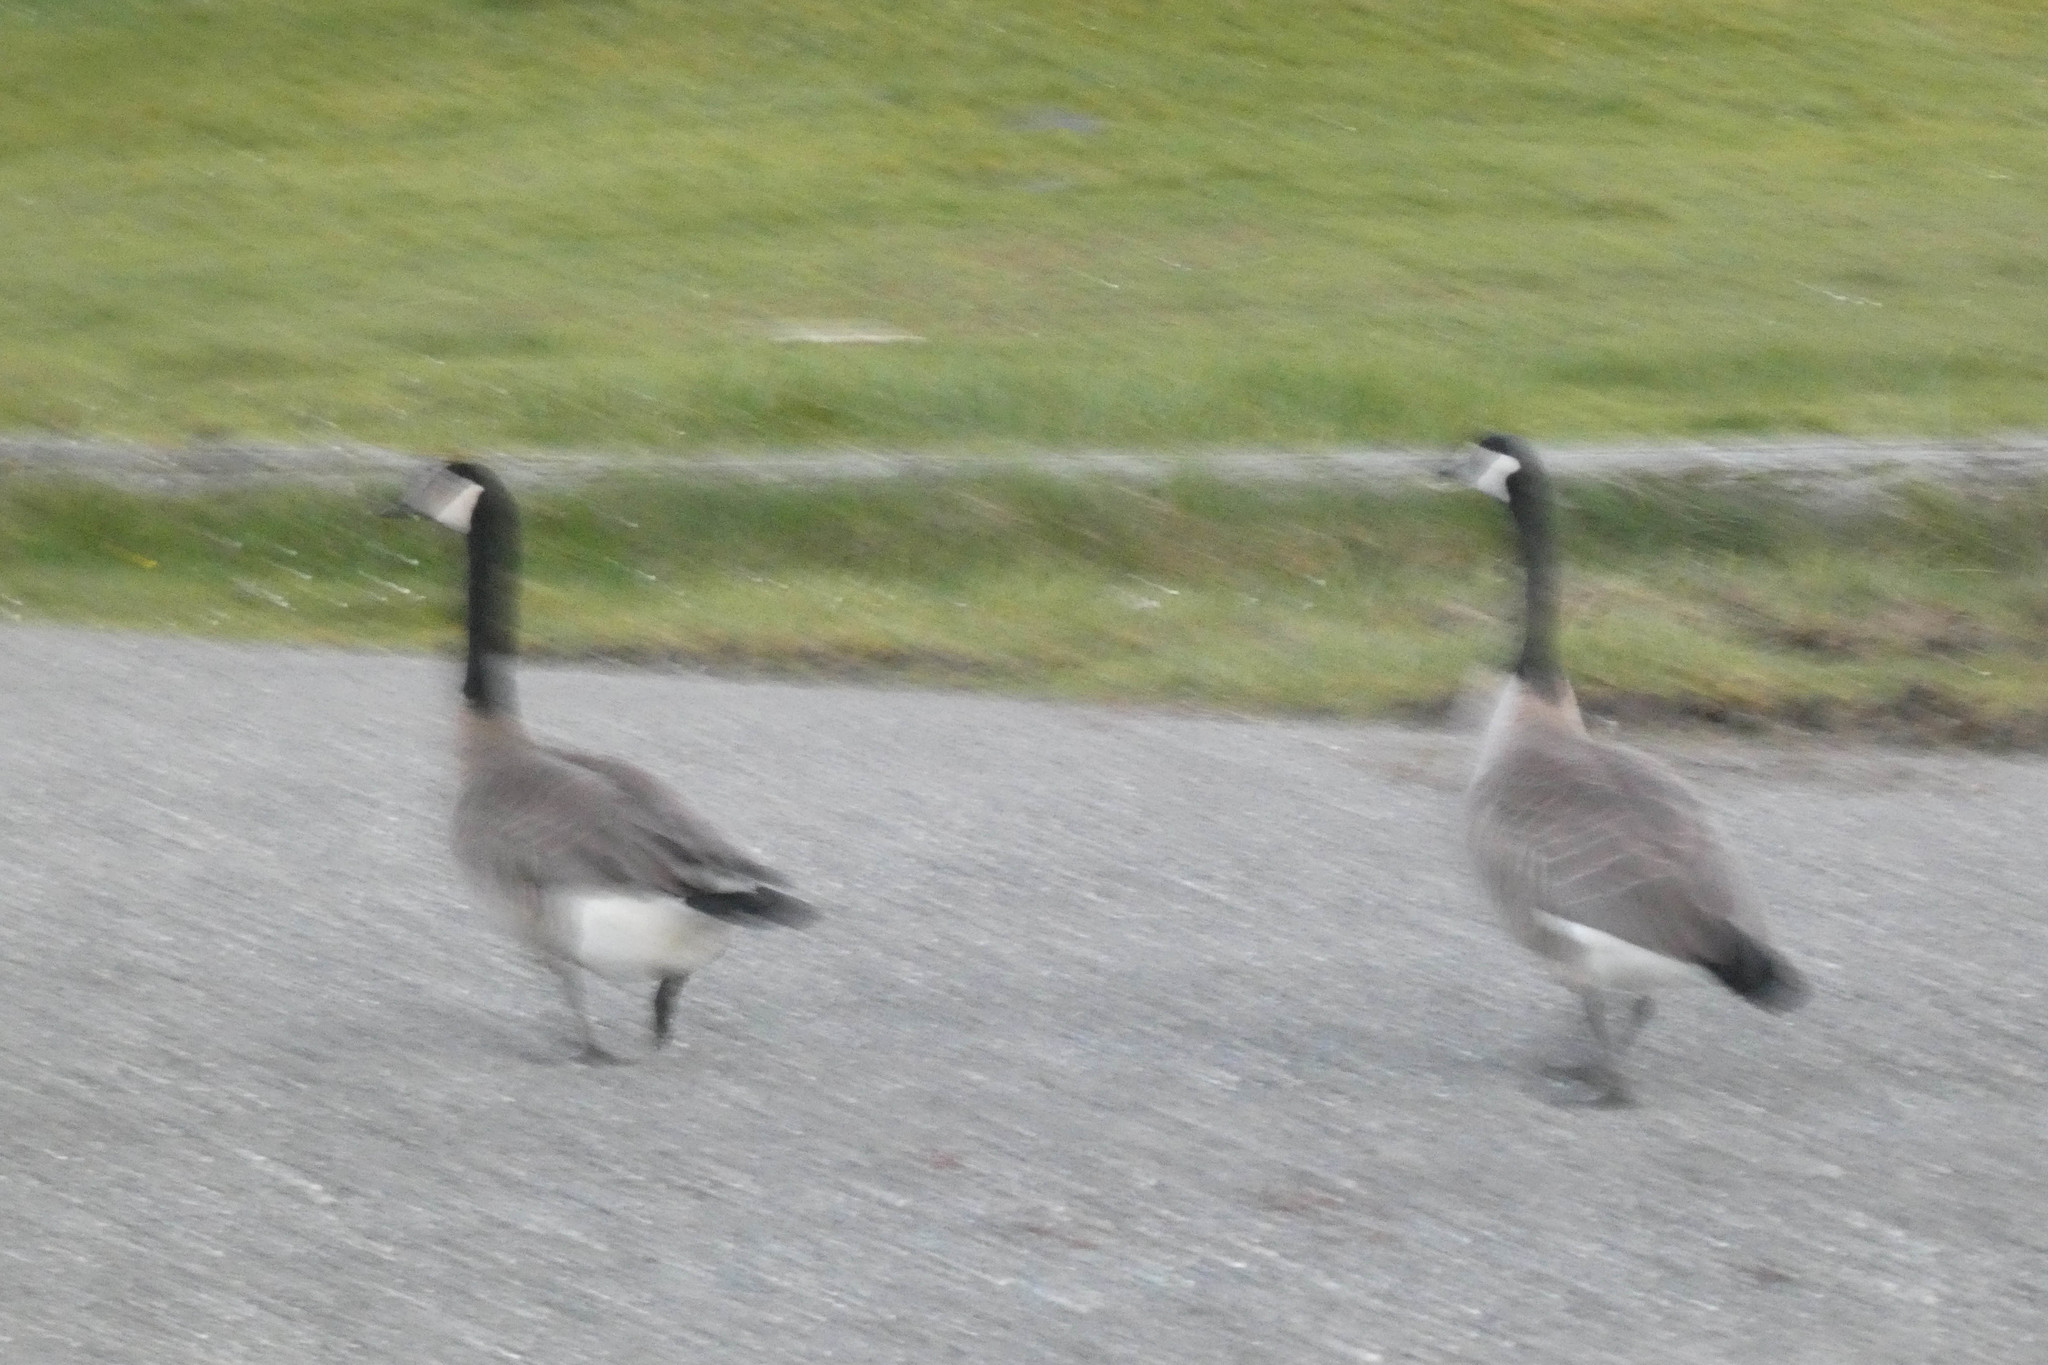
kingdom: Animalia
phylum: Chordata
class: Aves
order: Anseriformes
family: Anatidae
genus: Branta
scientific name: Branta canadensis
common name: Canada goose
